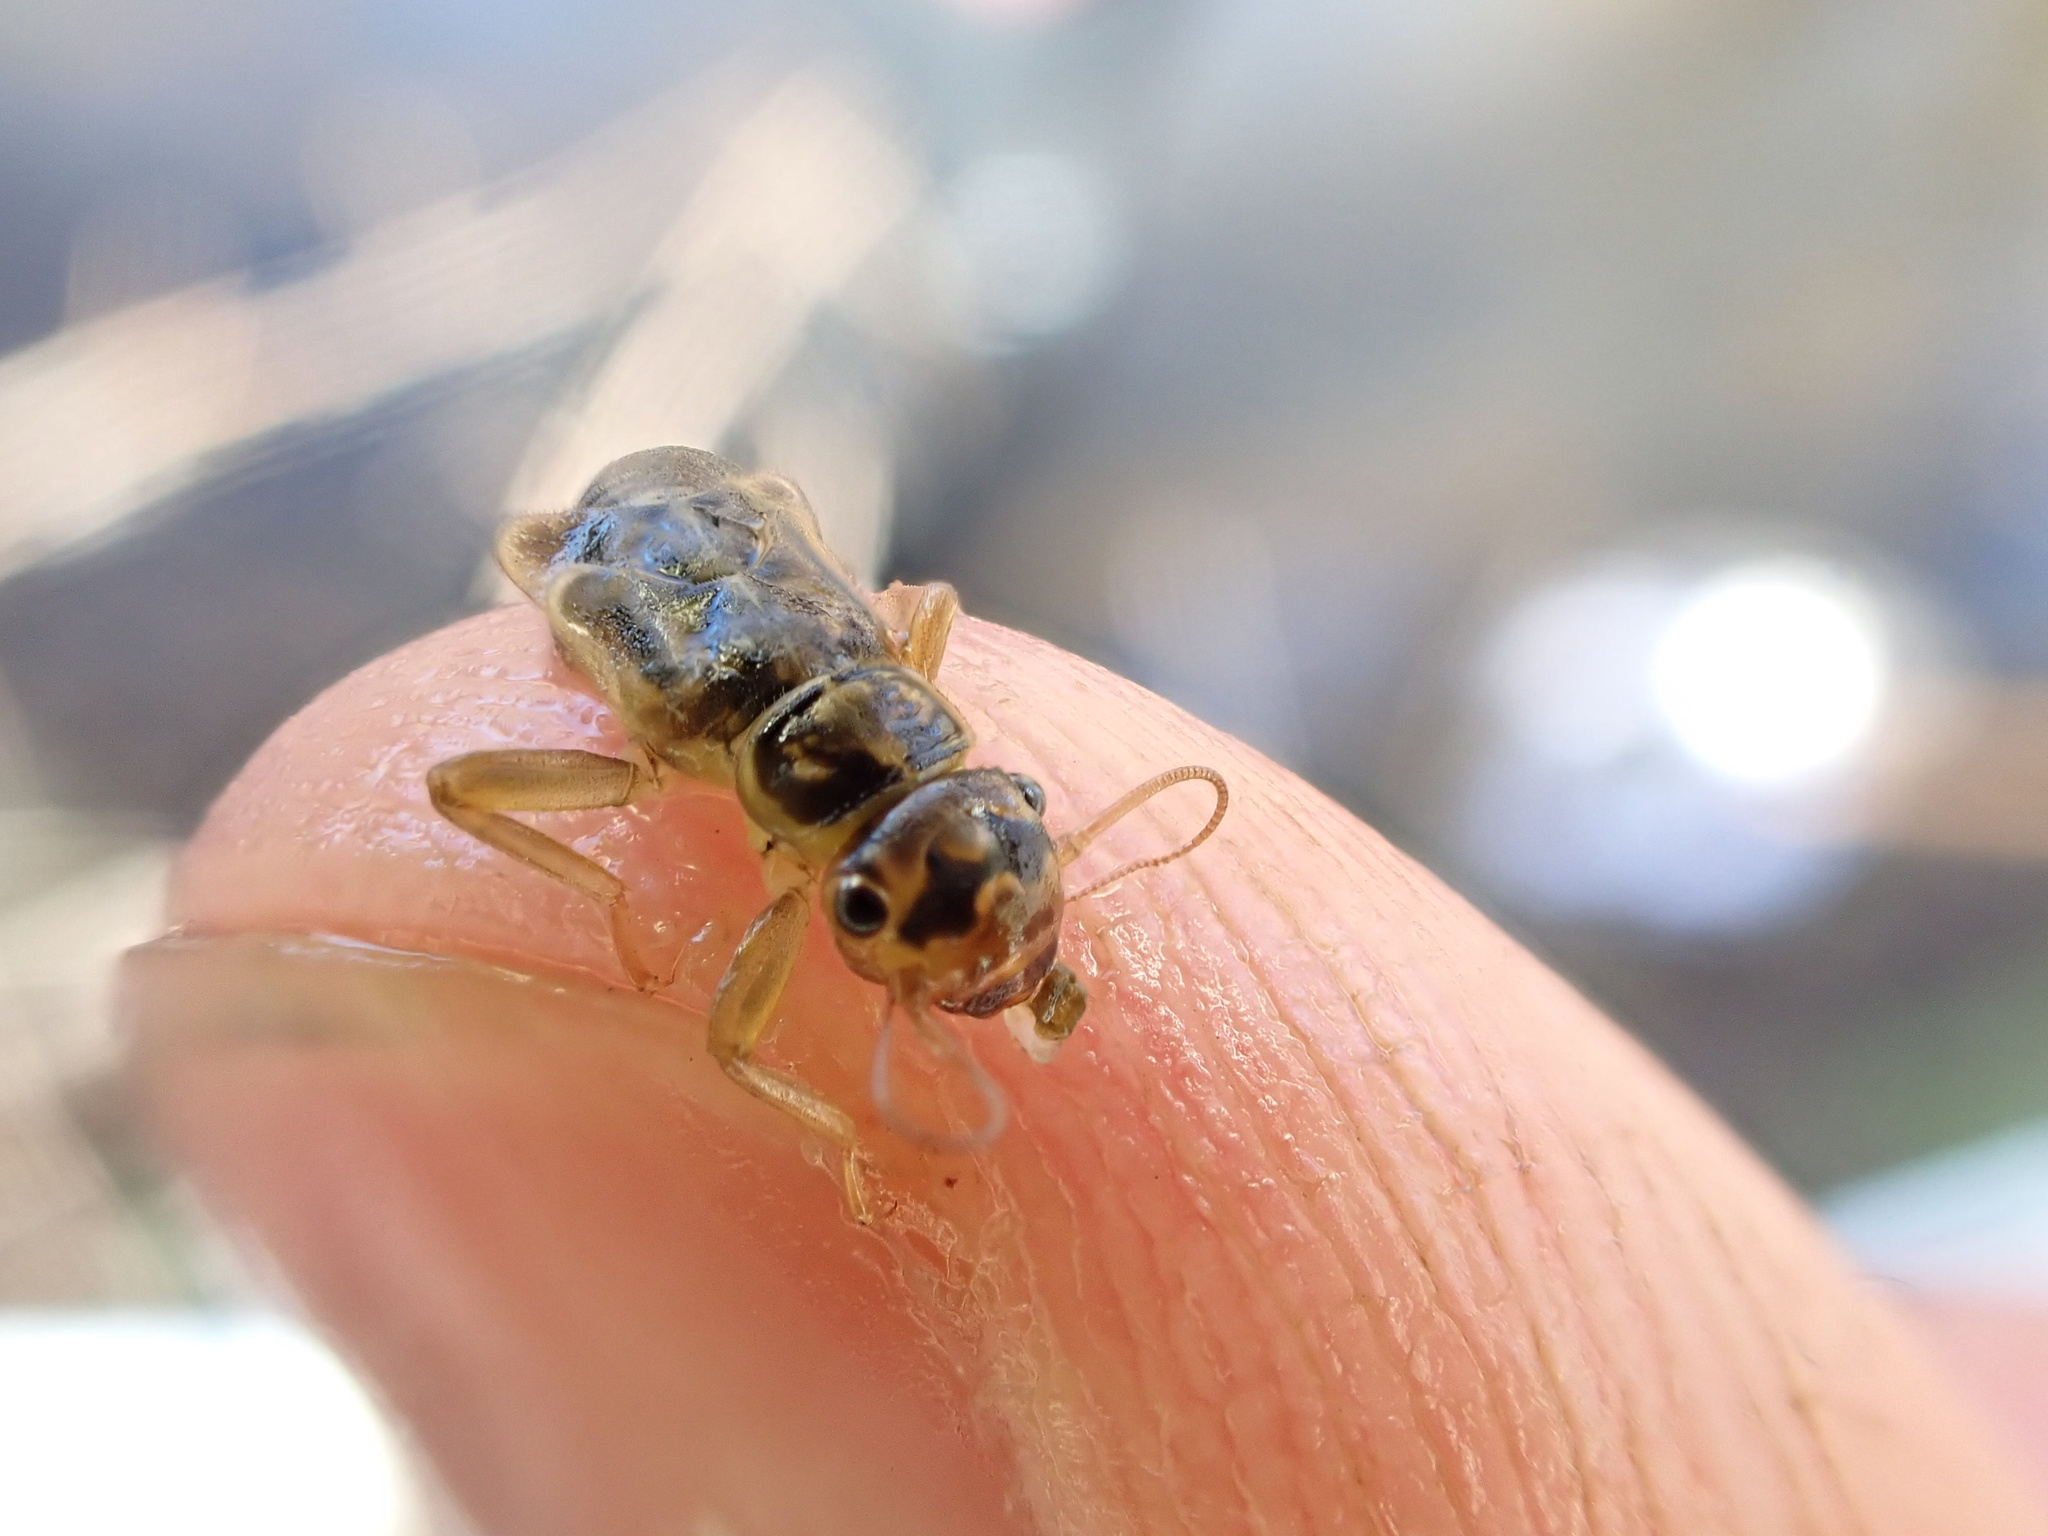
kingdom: Animalia
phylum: Arthropoda
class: Insecta
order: Plecoptera
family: Perlodidae
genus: Isoperla
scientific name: Isoperla difformis
